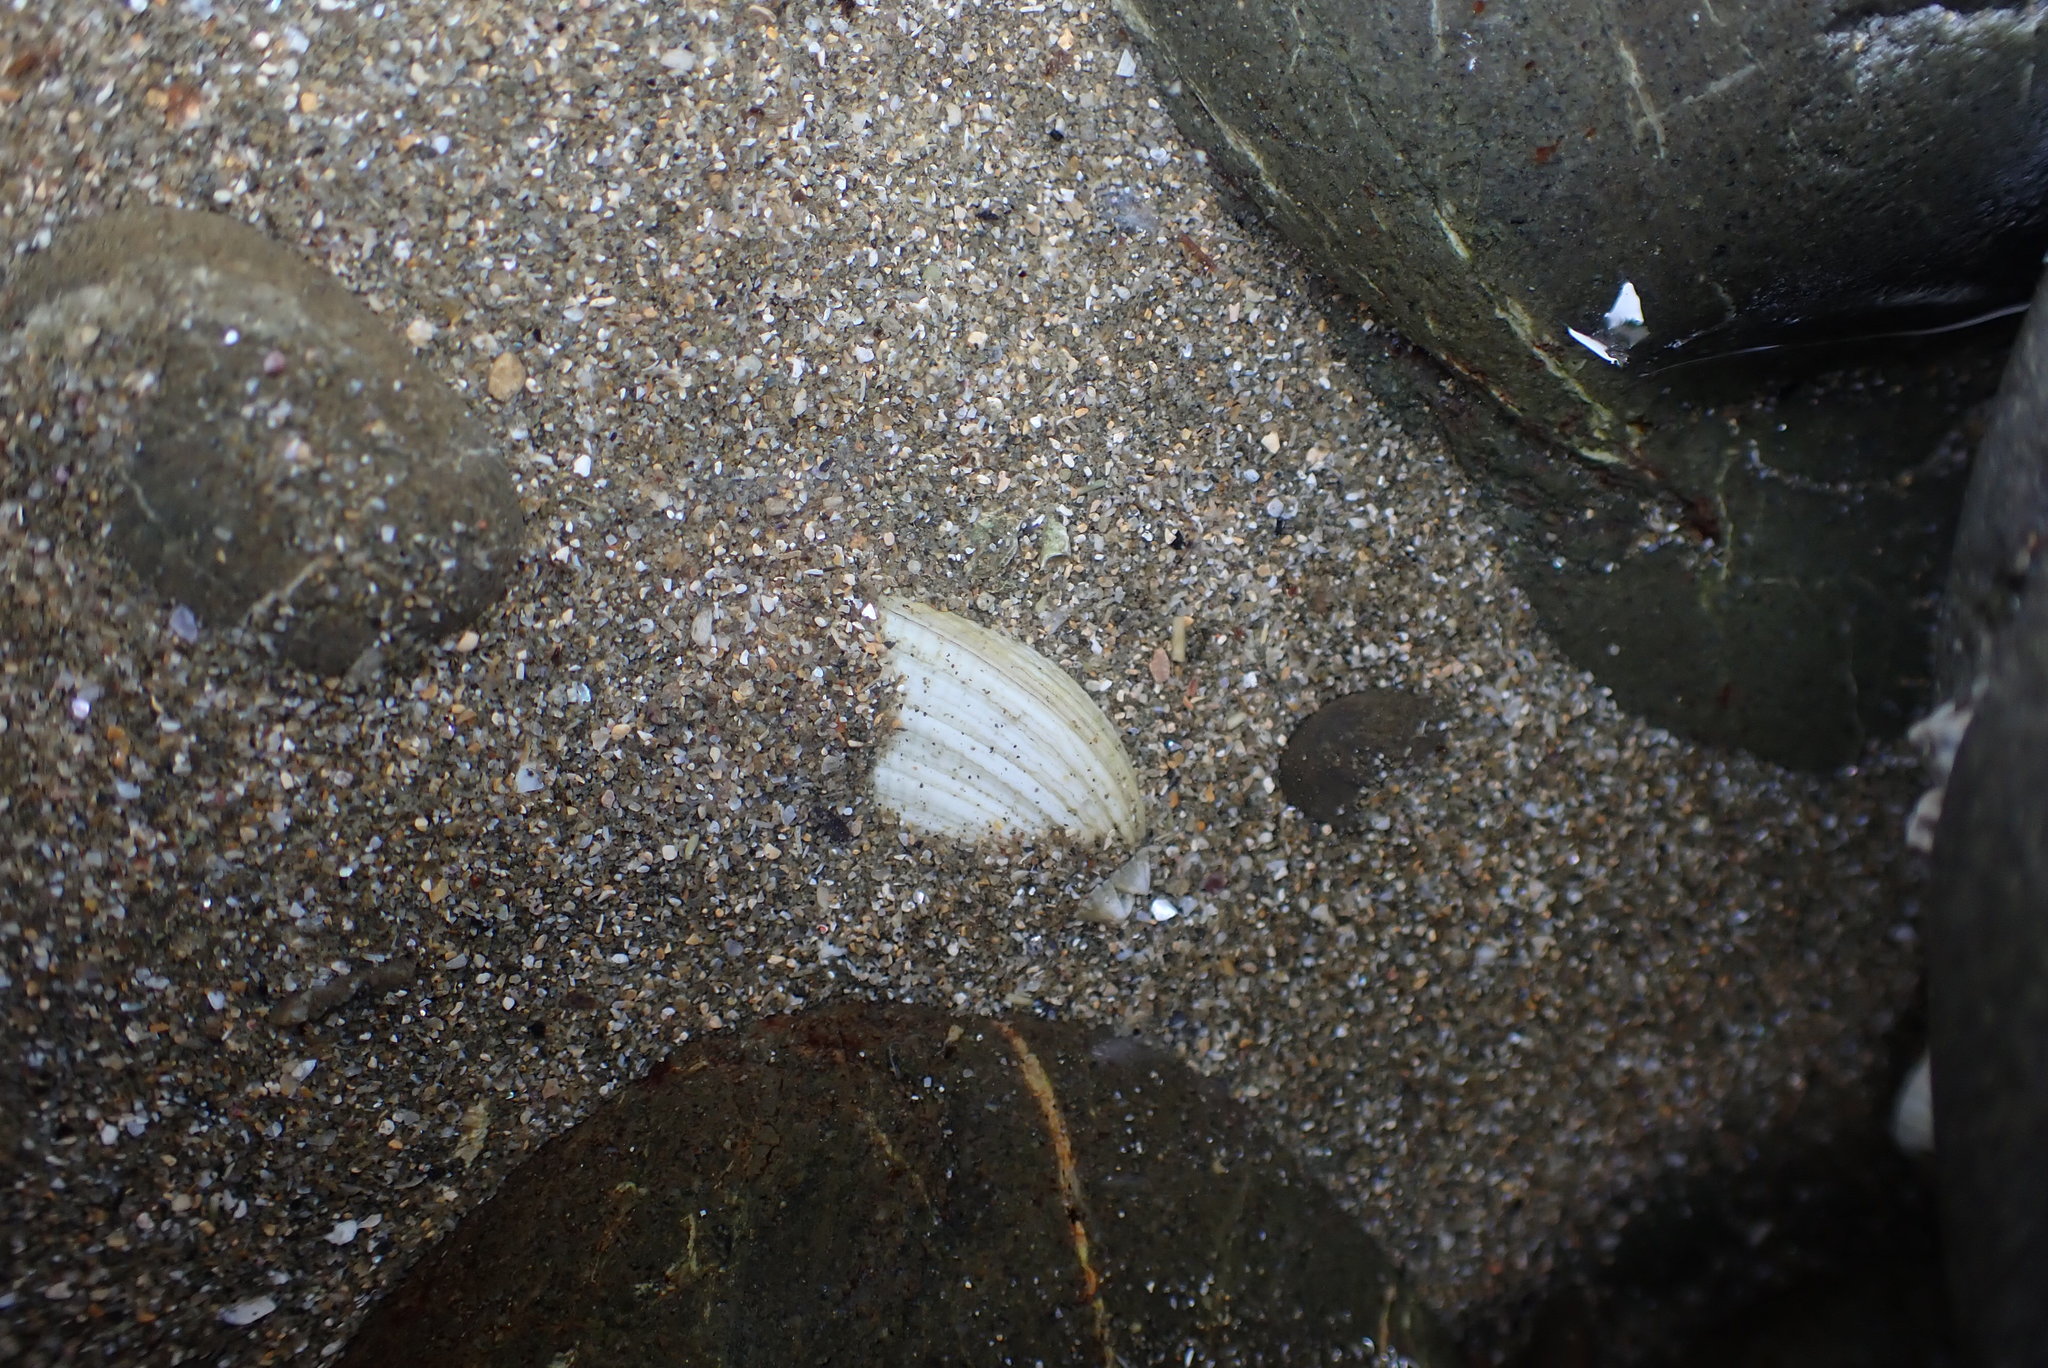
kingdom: Animalia
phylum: Mollusca
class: Bivalvia
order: Venerida
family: Veneridae
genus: Leukoma
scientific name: Leukoma crassicosta
